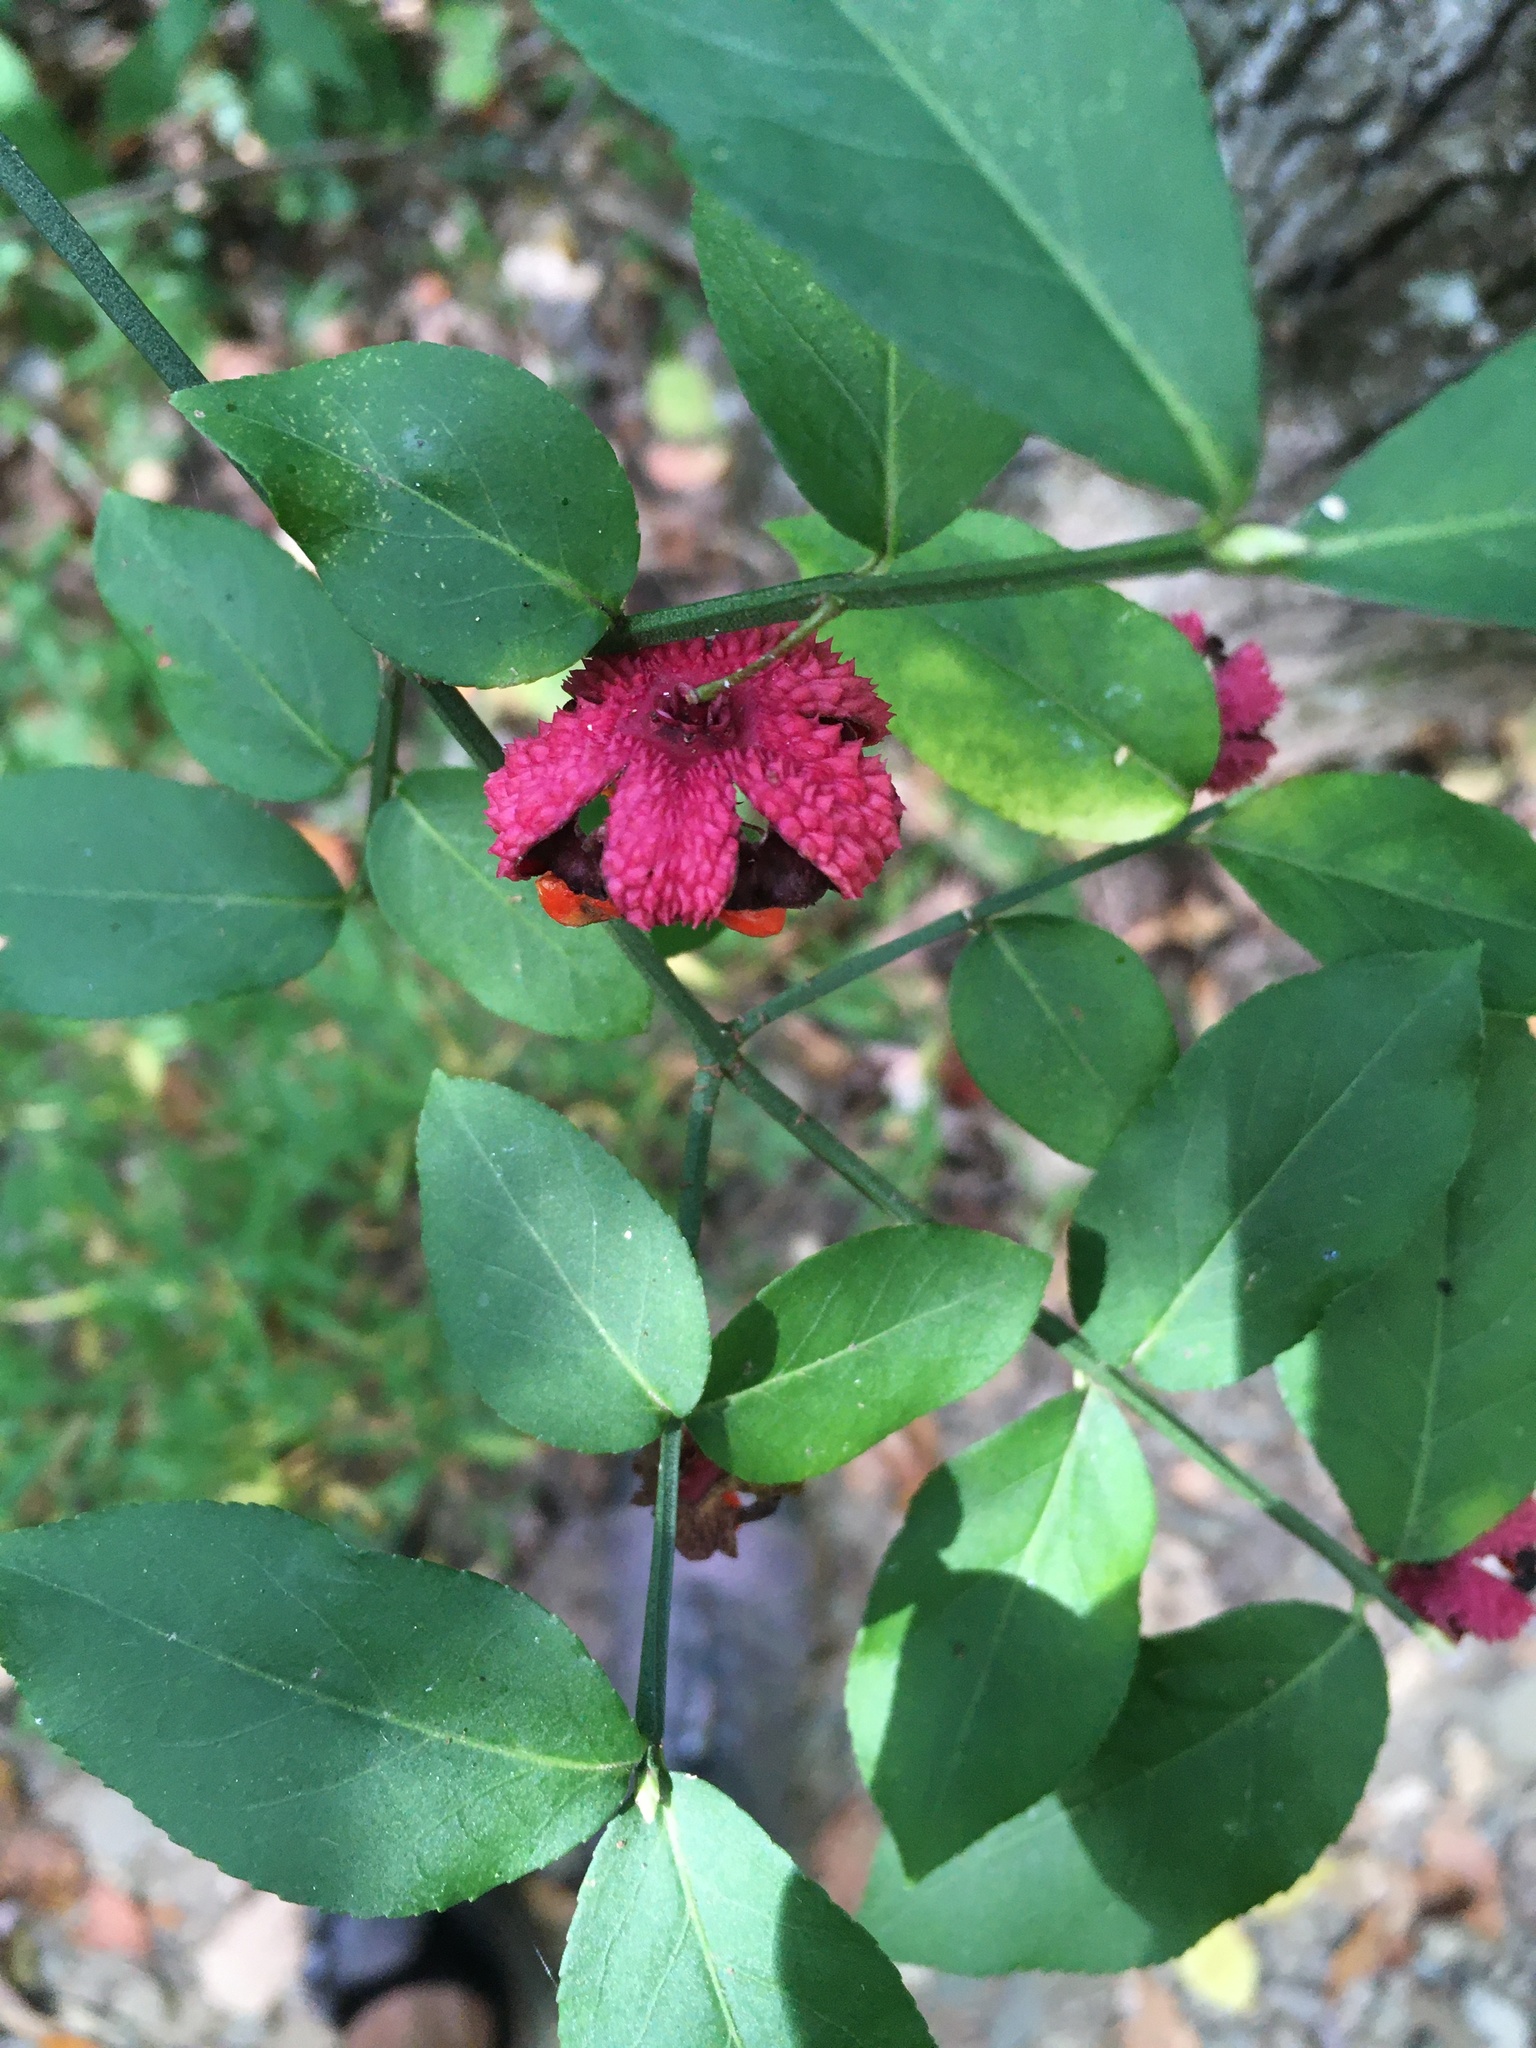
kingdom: Plantae
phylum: Tracheophyta
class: Magnoliopsida
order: Celastrales
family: Celastraceae
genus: Euonymus
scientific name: Euonymus americanus
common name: Bursting-heart
